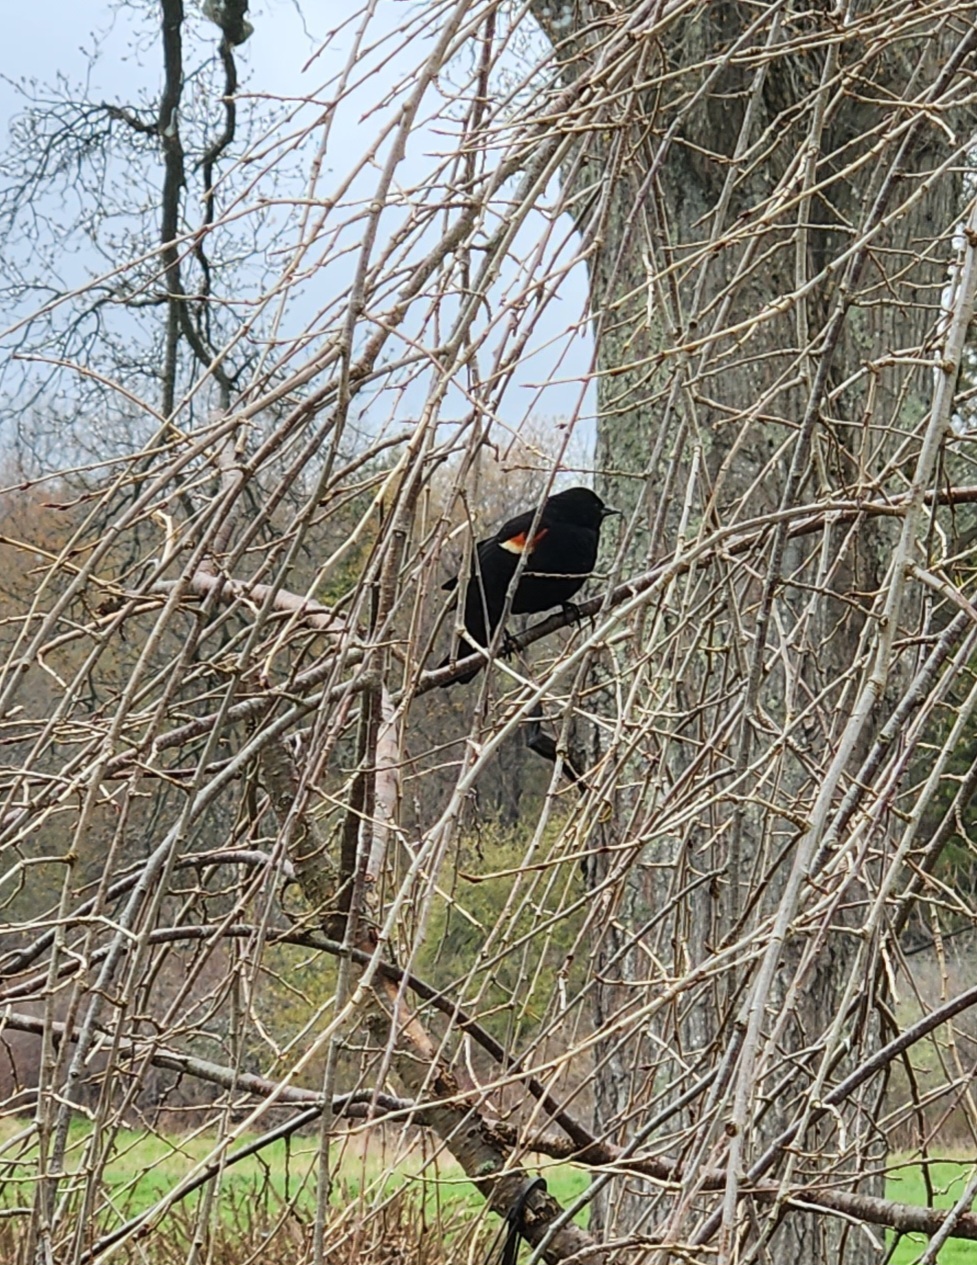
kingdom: Animalia
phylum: Chordata
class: Aves
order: Passeriformes
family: Icteridae
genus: Agelaius
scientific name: Agelaius phoeniceus
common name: Red-winged blackbird
